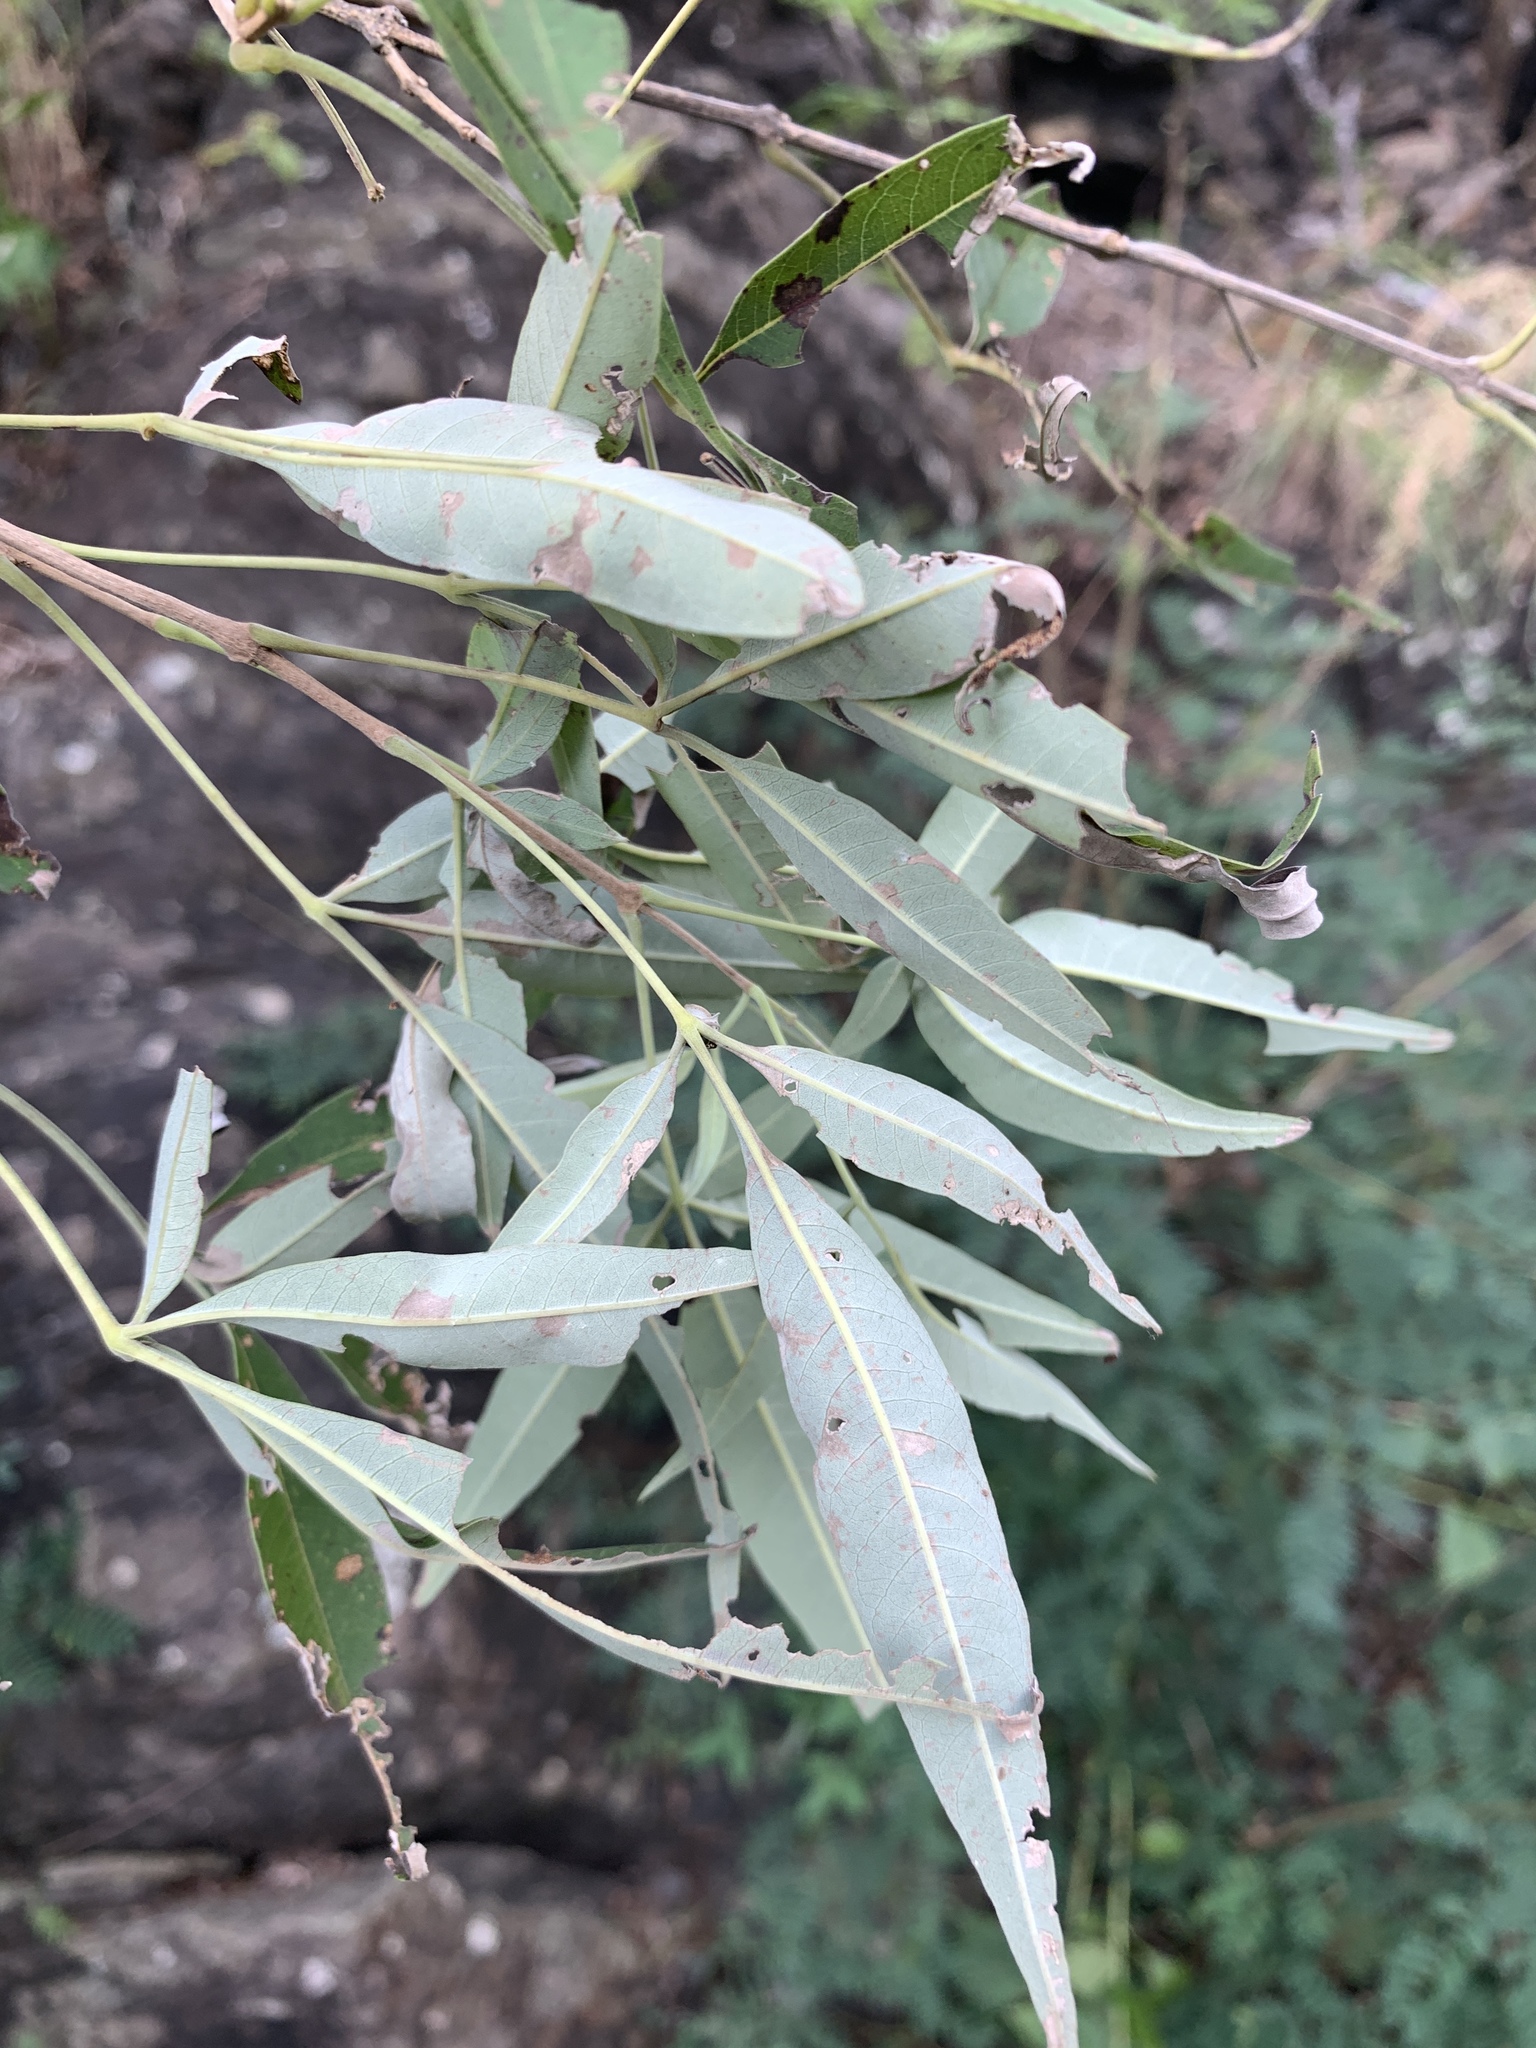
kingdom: Plantae
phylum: Tracheophyta
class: Magnoliopsida
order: Lamiales
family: Lamiaceae
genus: Vitex
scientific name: Vitex negundo
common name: Chinese chastetree
